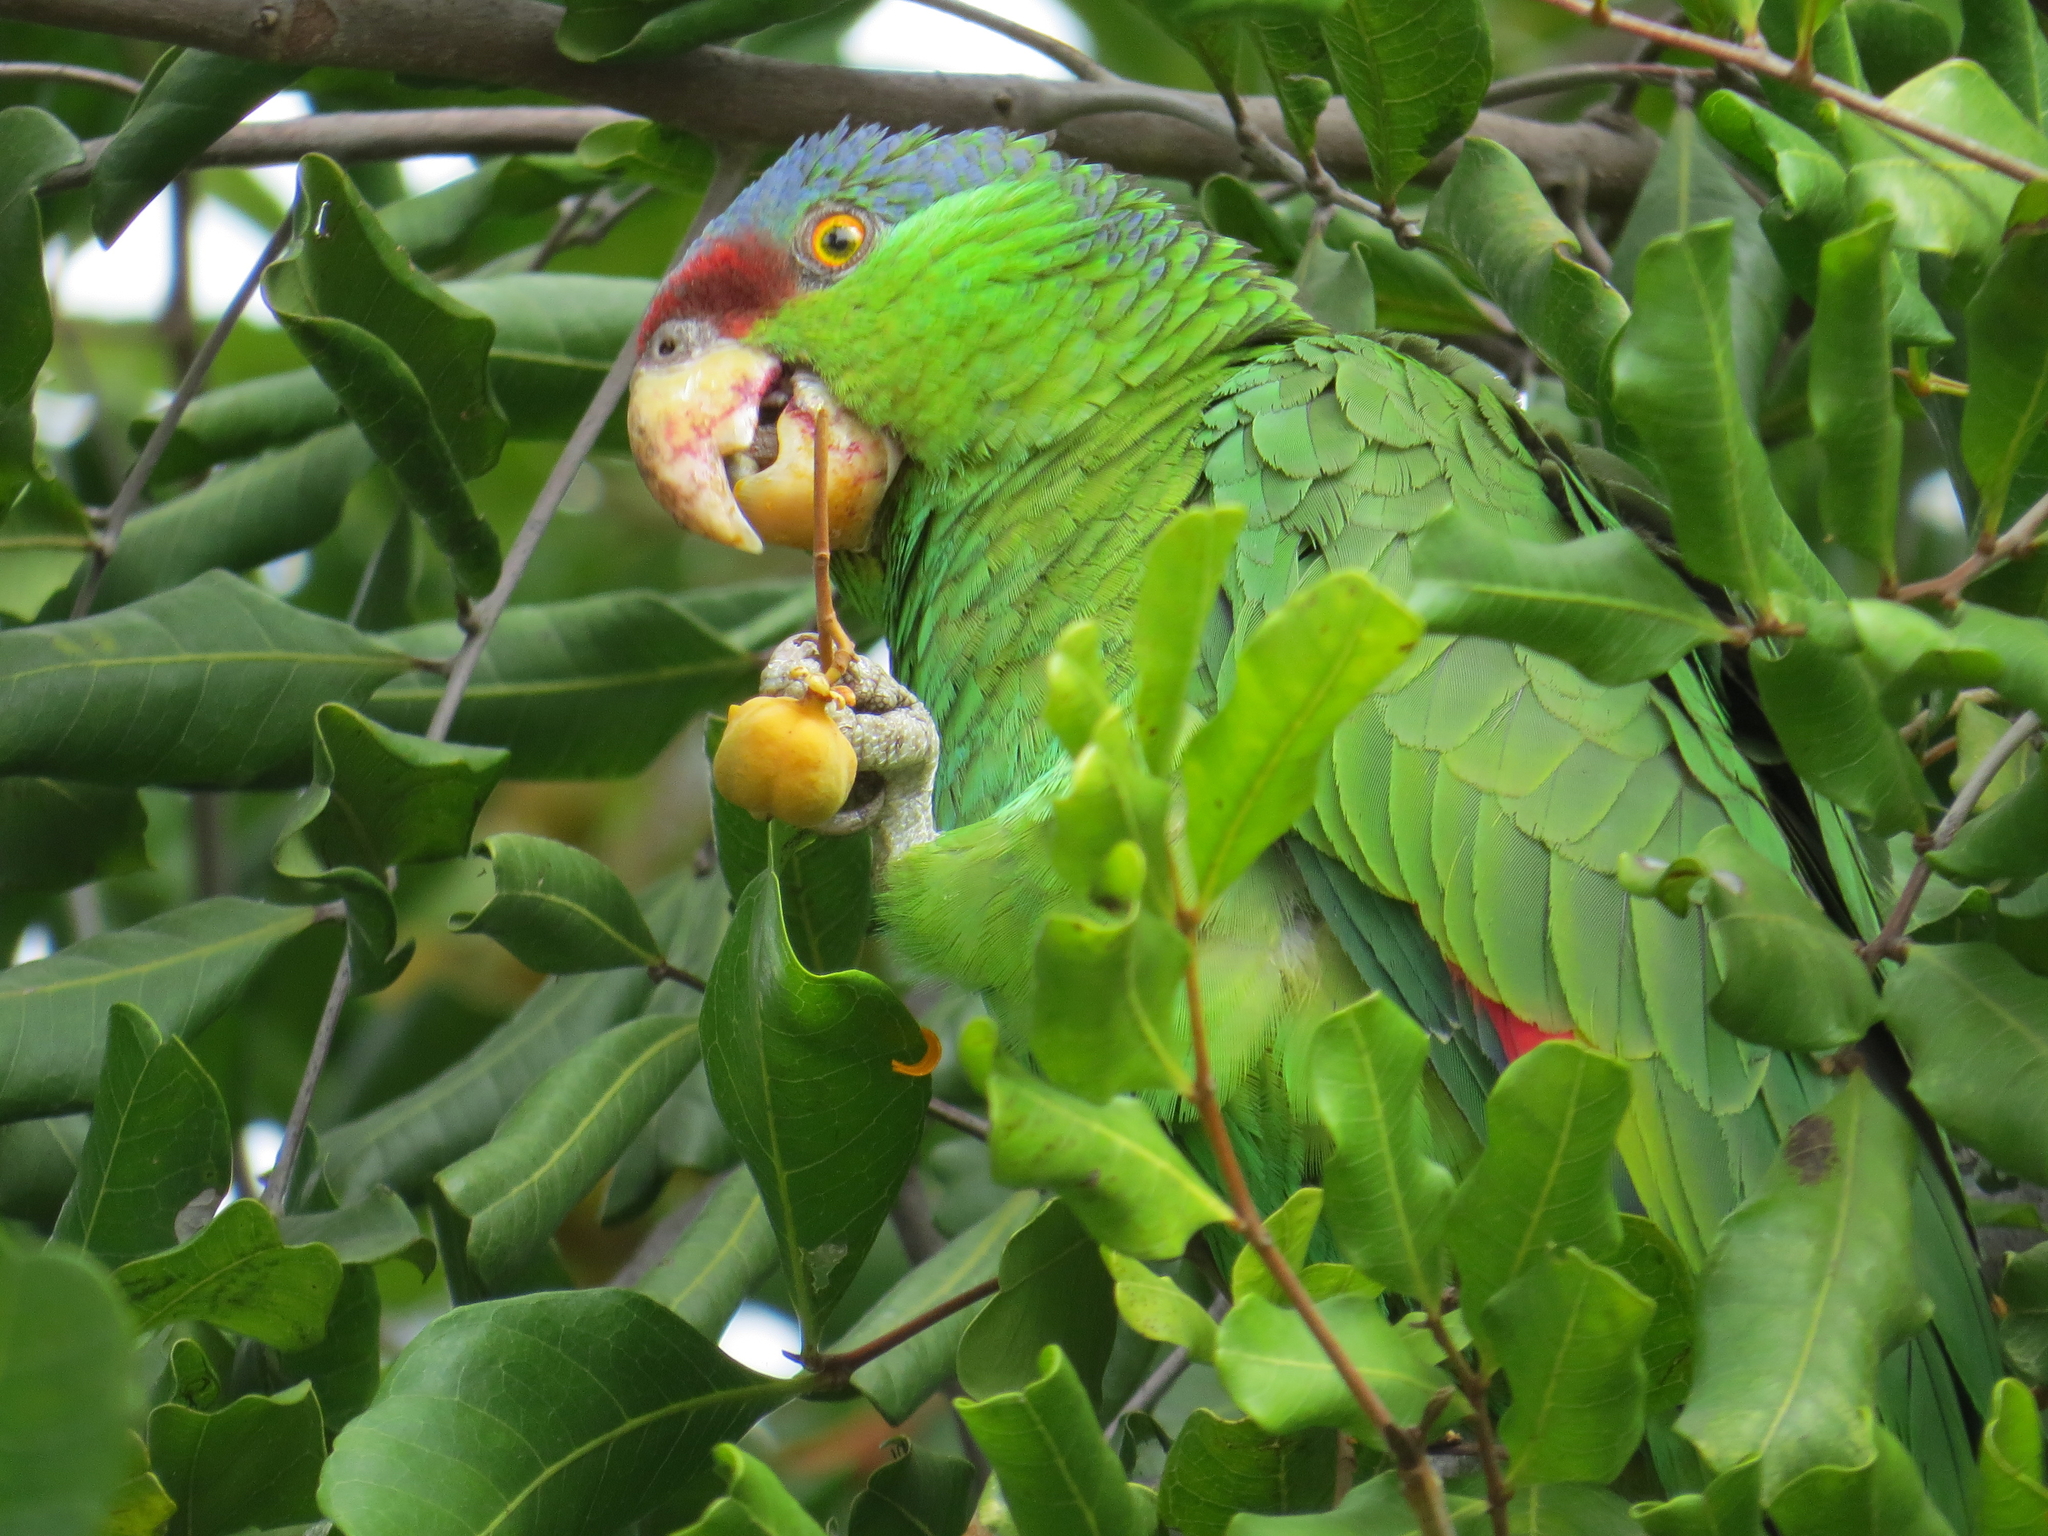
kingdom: Animalia
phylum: Chordata
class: Aves
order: Psittaciformes
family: Psittacidae
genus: Amazona
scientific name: Amazona finschi
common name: Lilac-crowned amazon
